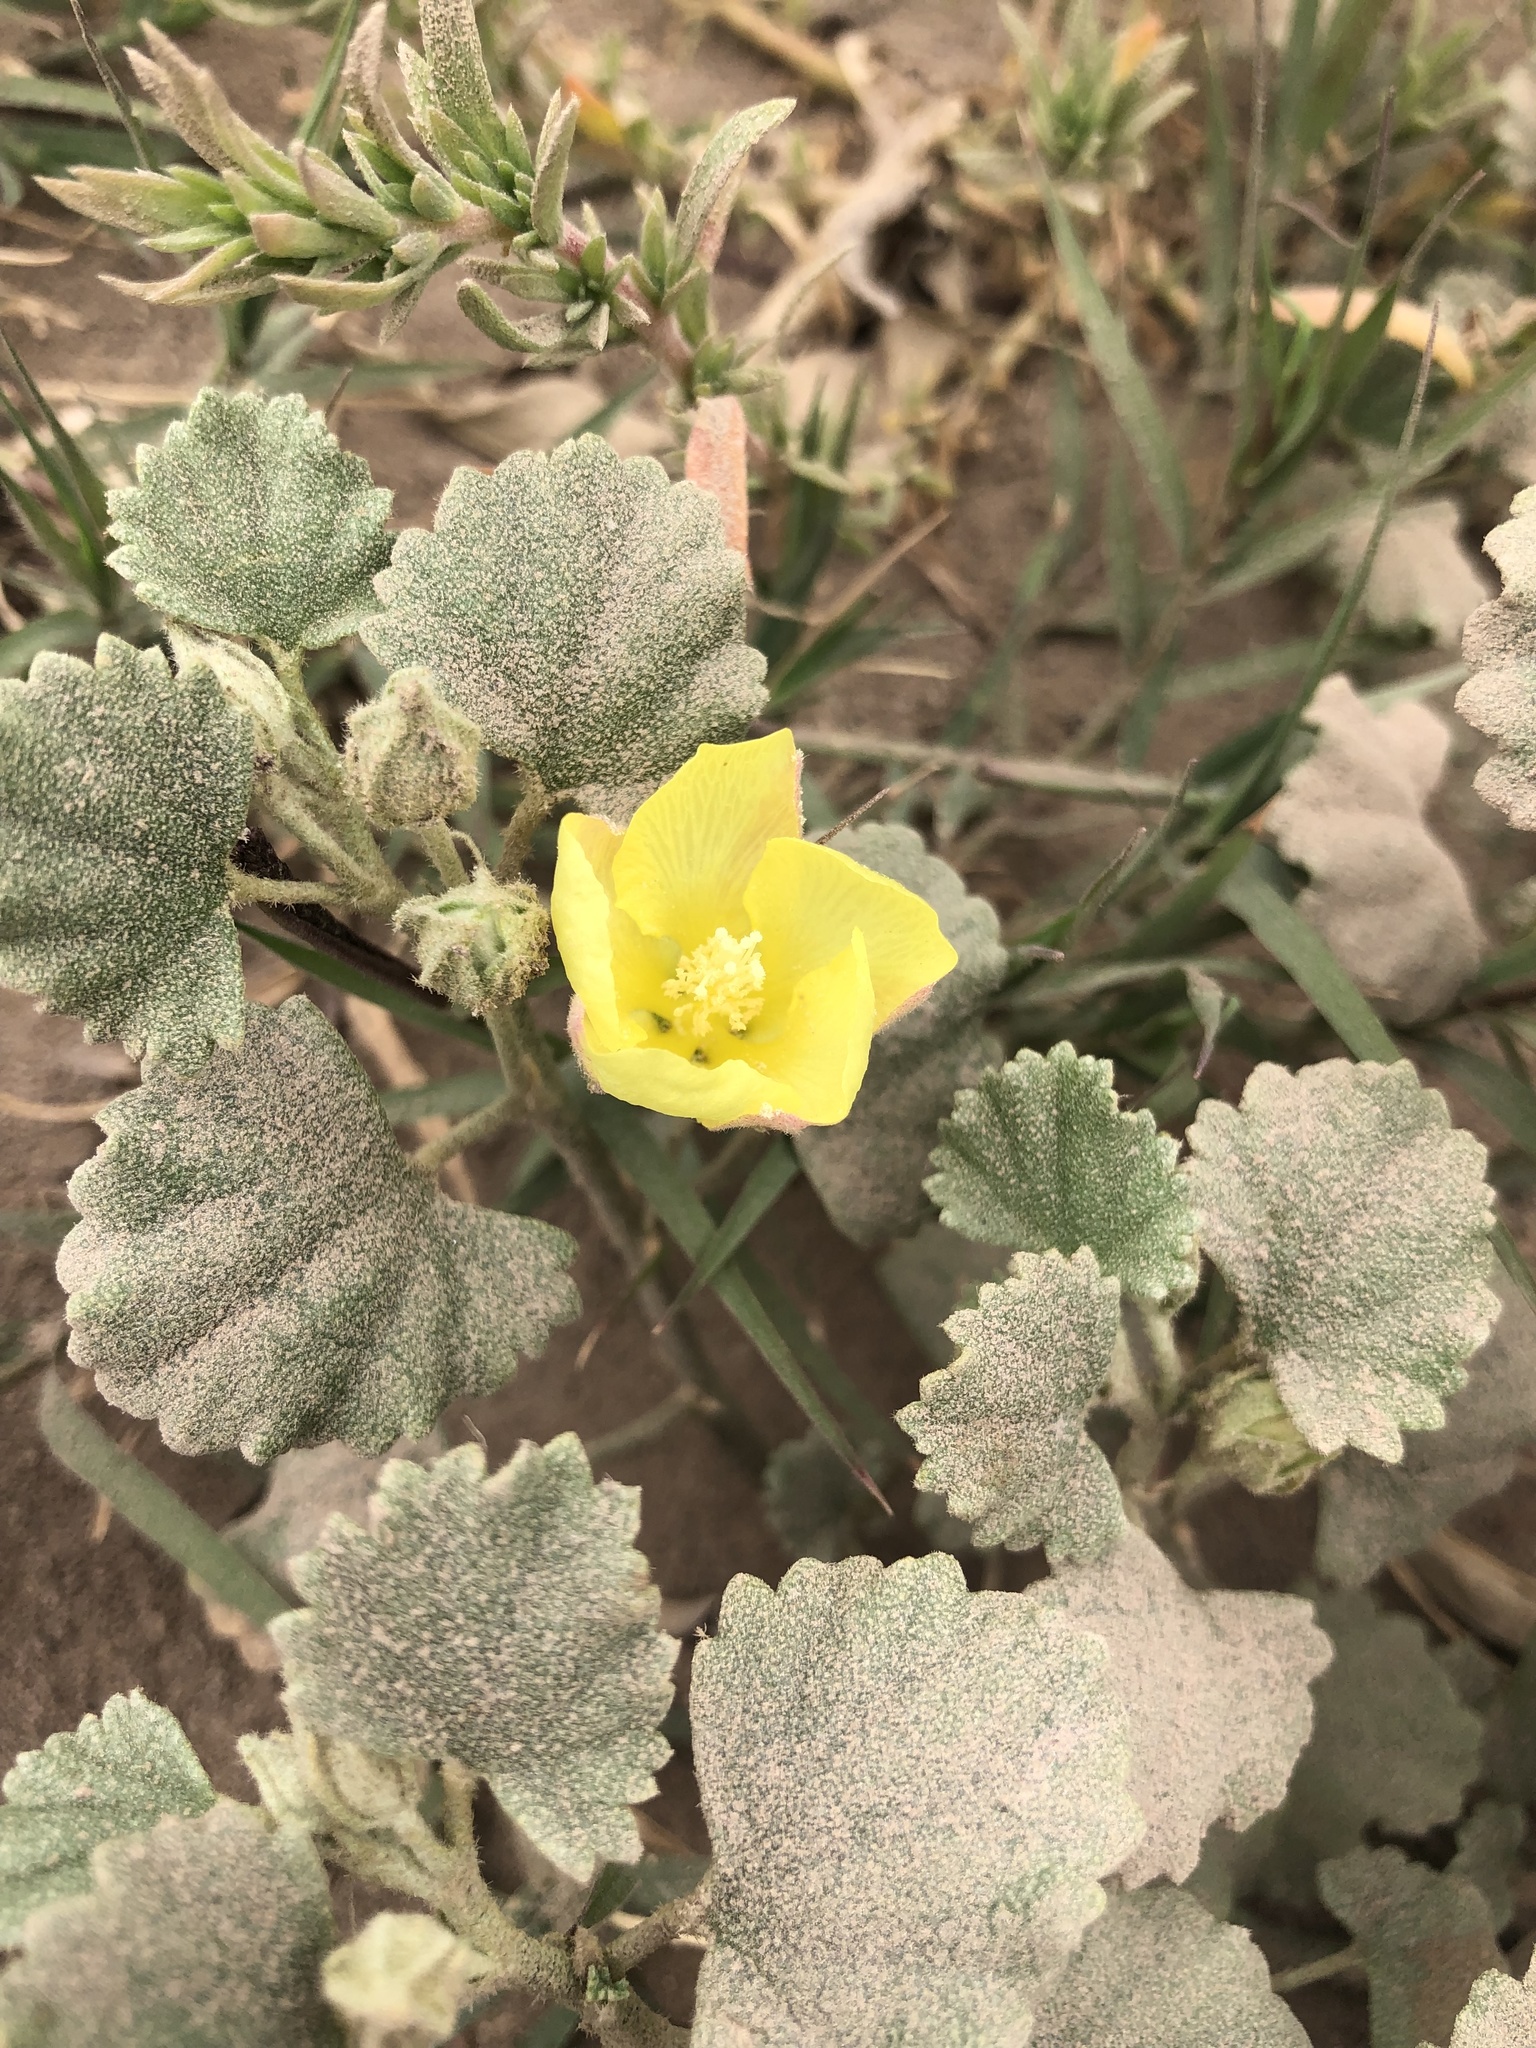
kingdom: Plantae
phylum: Tracheophyta
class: Magnoliopsida
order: Malvales
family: Malvaceae
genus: Malvella
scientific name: Malvella leprosa
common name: Alkali-mallow
